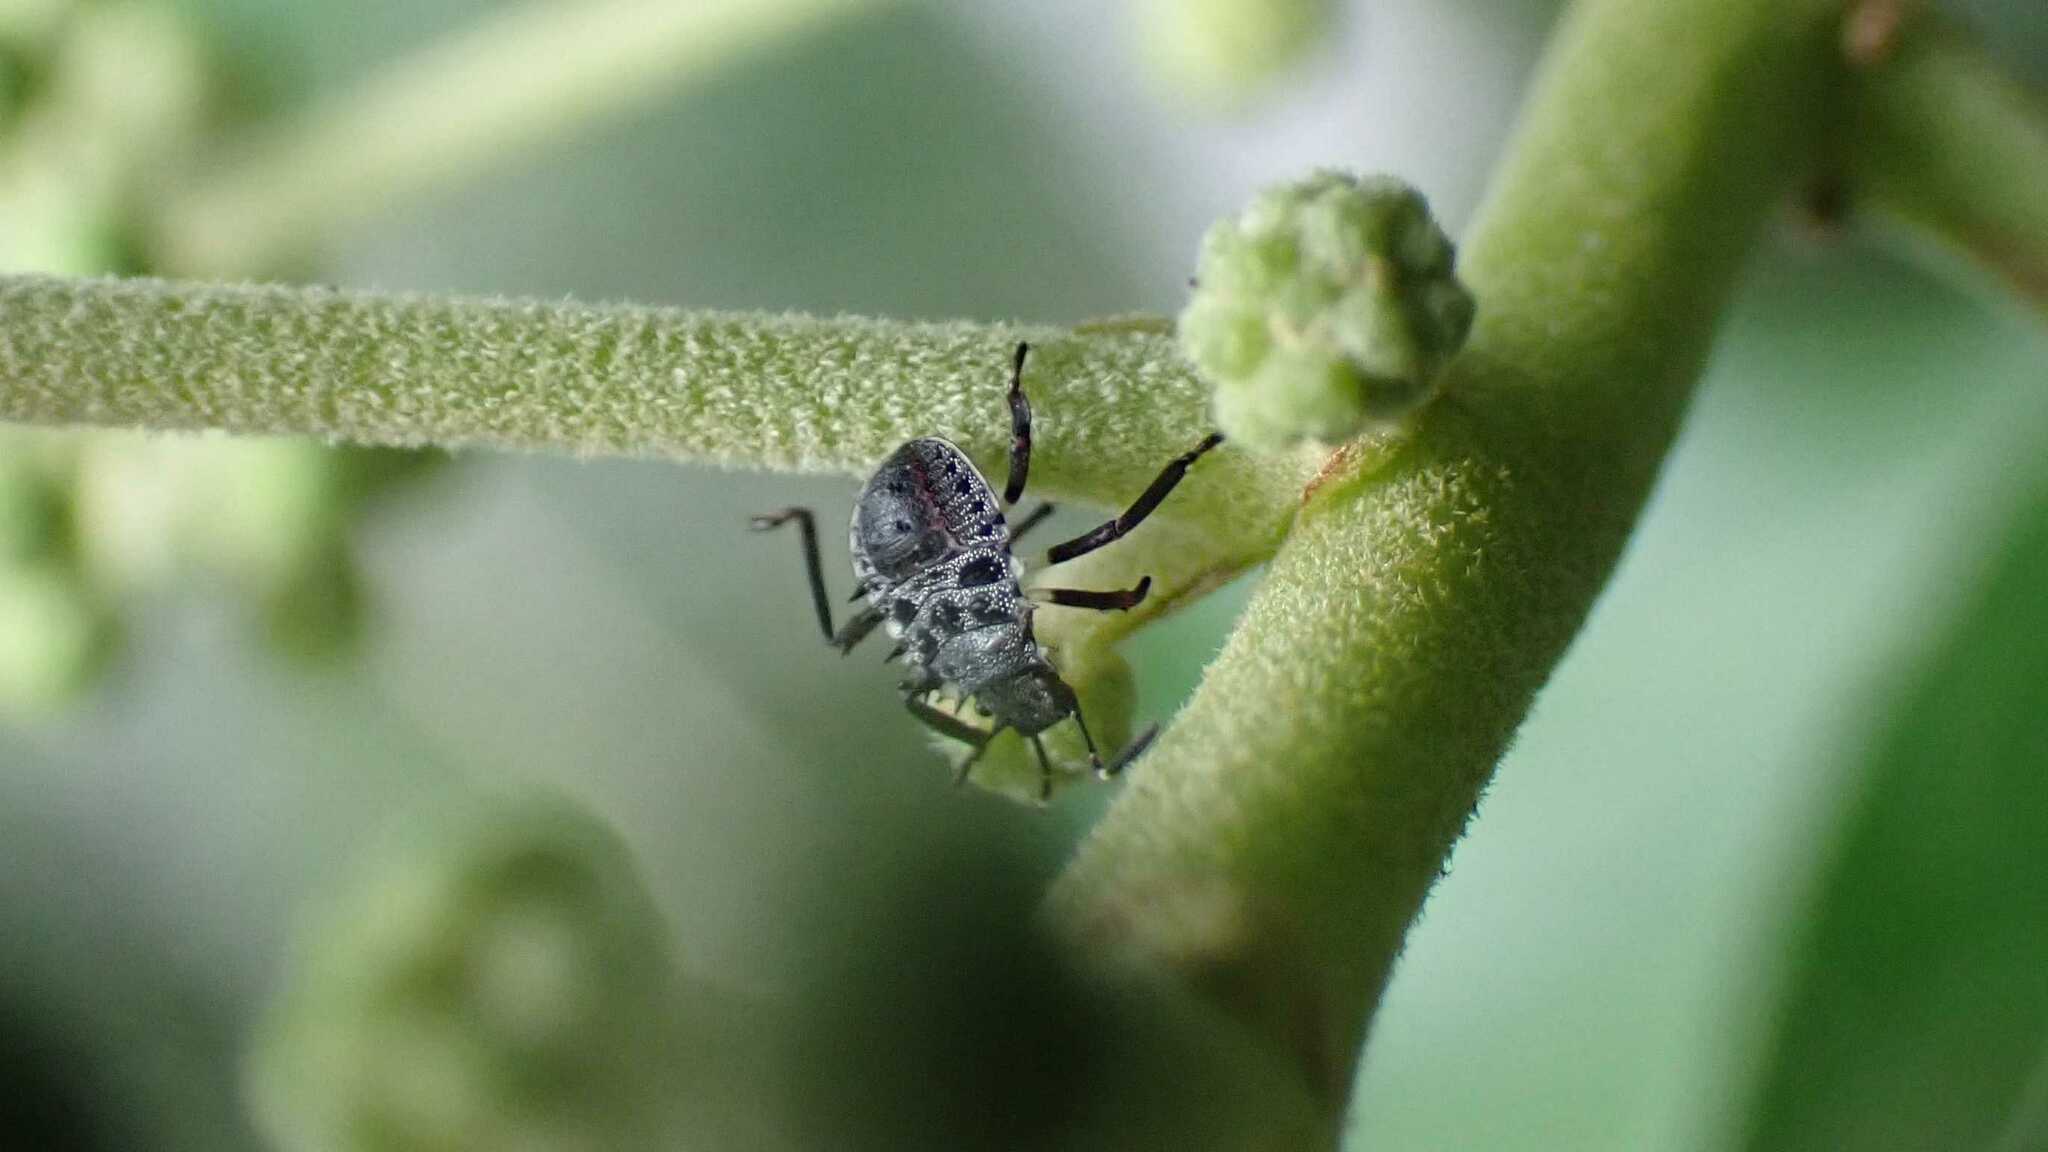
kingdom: Animalia
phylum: Arthropoda
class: Insecta
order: Hemiptera
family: Pentatomidae
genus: Halyomorpha
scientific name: Halyomorpha halys
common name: Brown marmorated stink bug
